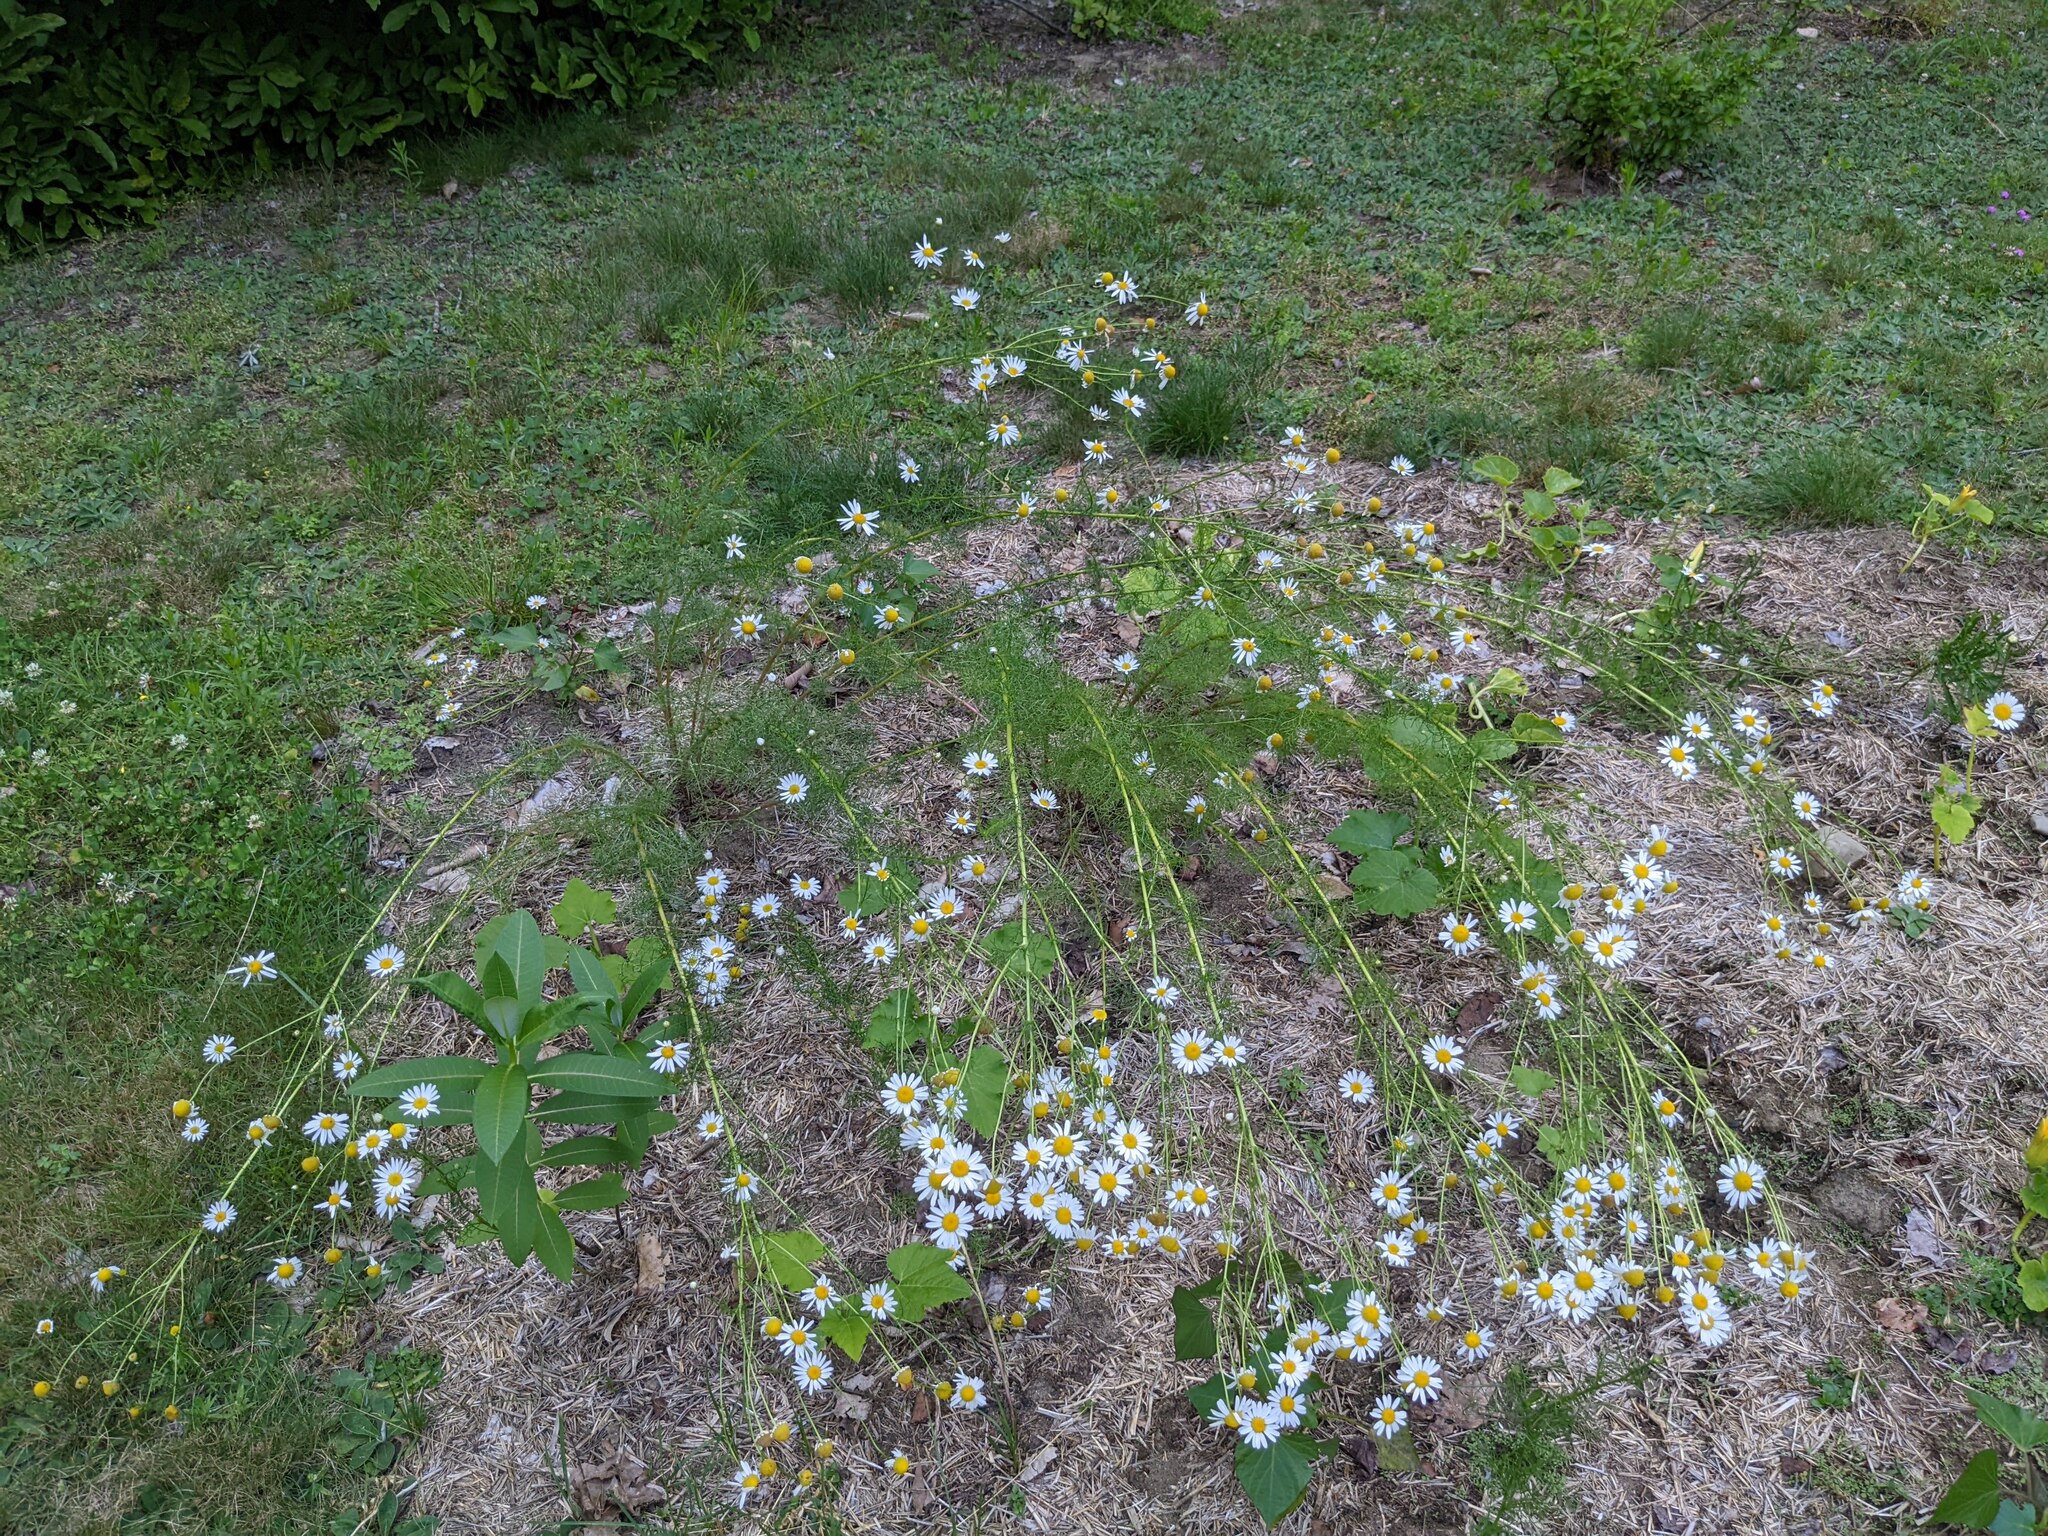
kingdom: Plantae
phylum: Tracheophyta
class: Magnoliopsida
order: Asterales
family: Asteraceae
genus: Tripleurospermum
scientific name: Tripleurospermum inodorum
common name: Scentless mayweed
